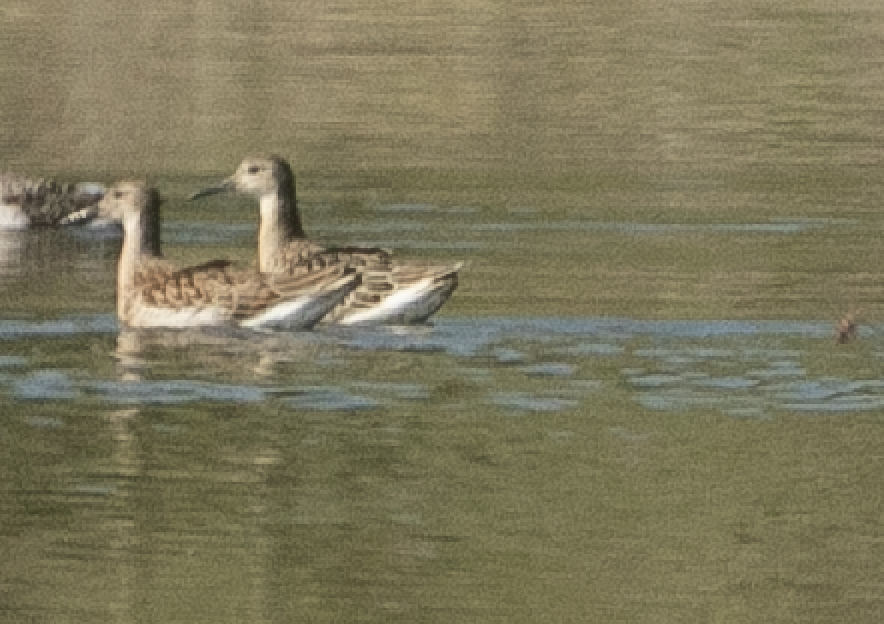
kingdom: Animalia
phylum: Chordata
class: Aves
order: Charadriiformes
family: Scolopacidae
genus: Calidris
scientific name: Calidris pugnax
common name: Ruff
